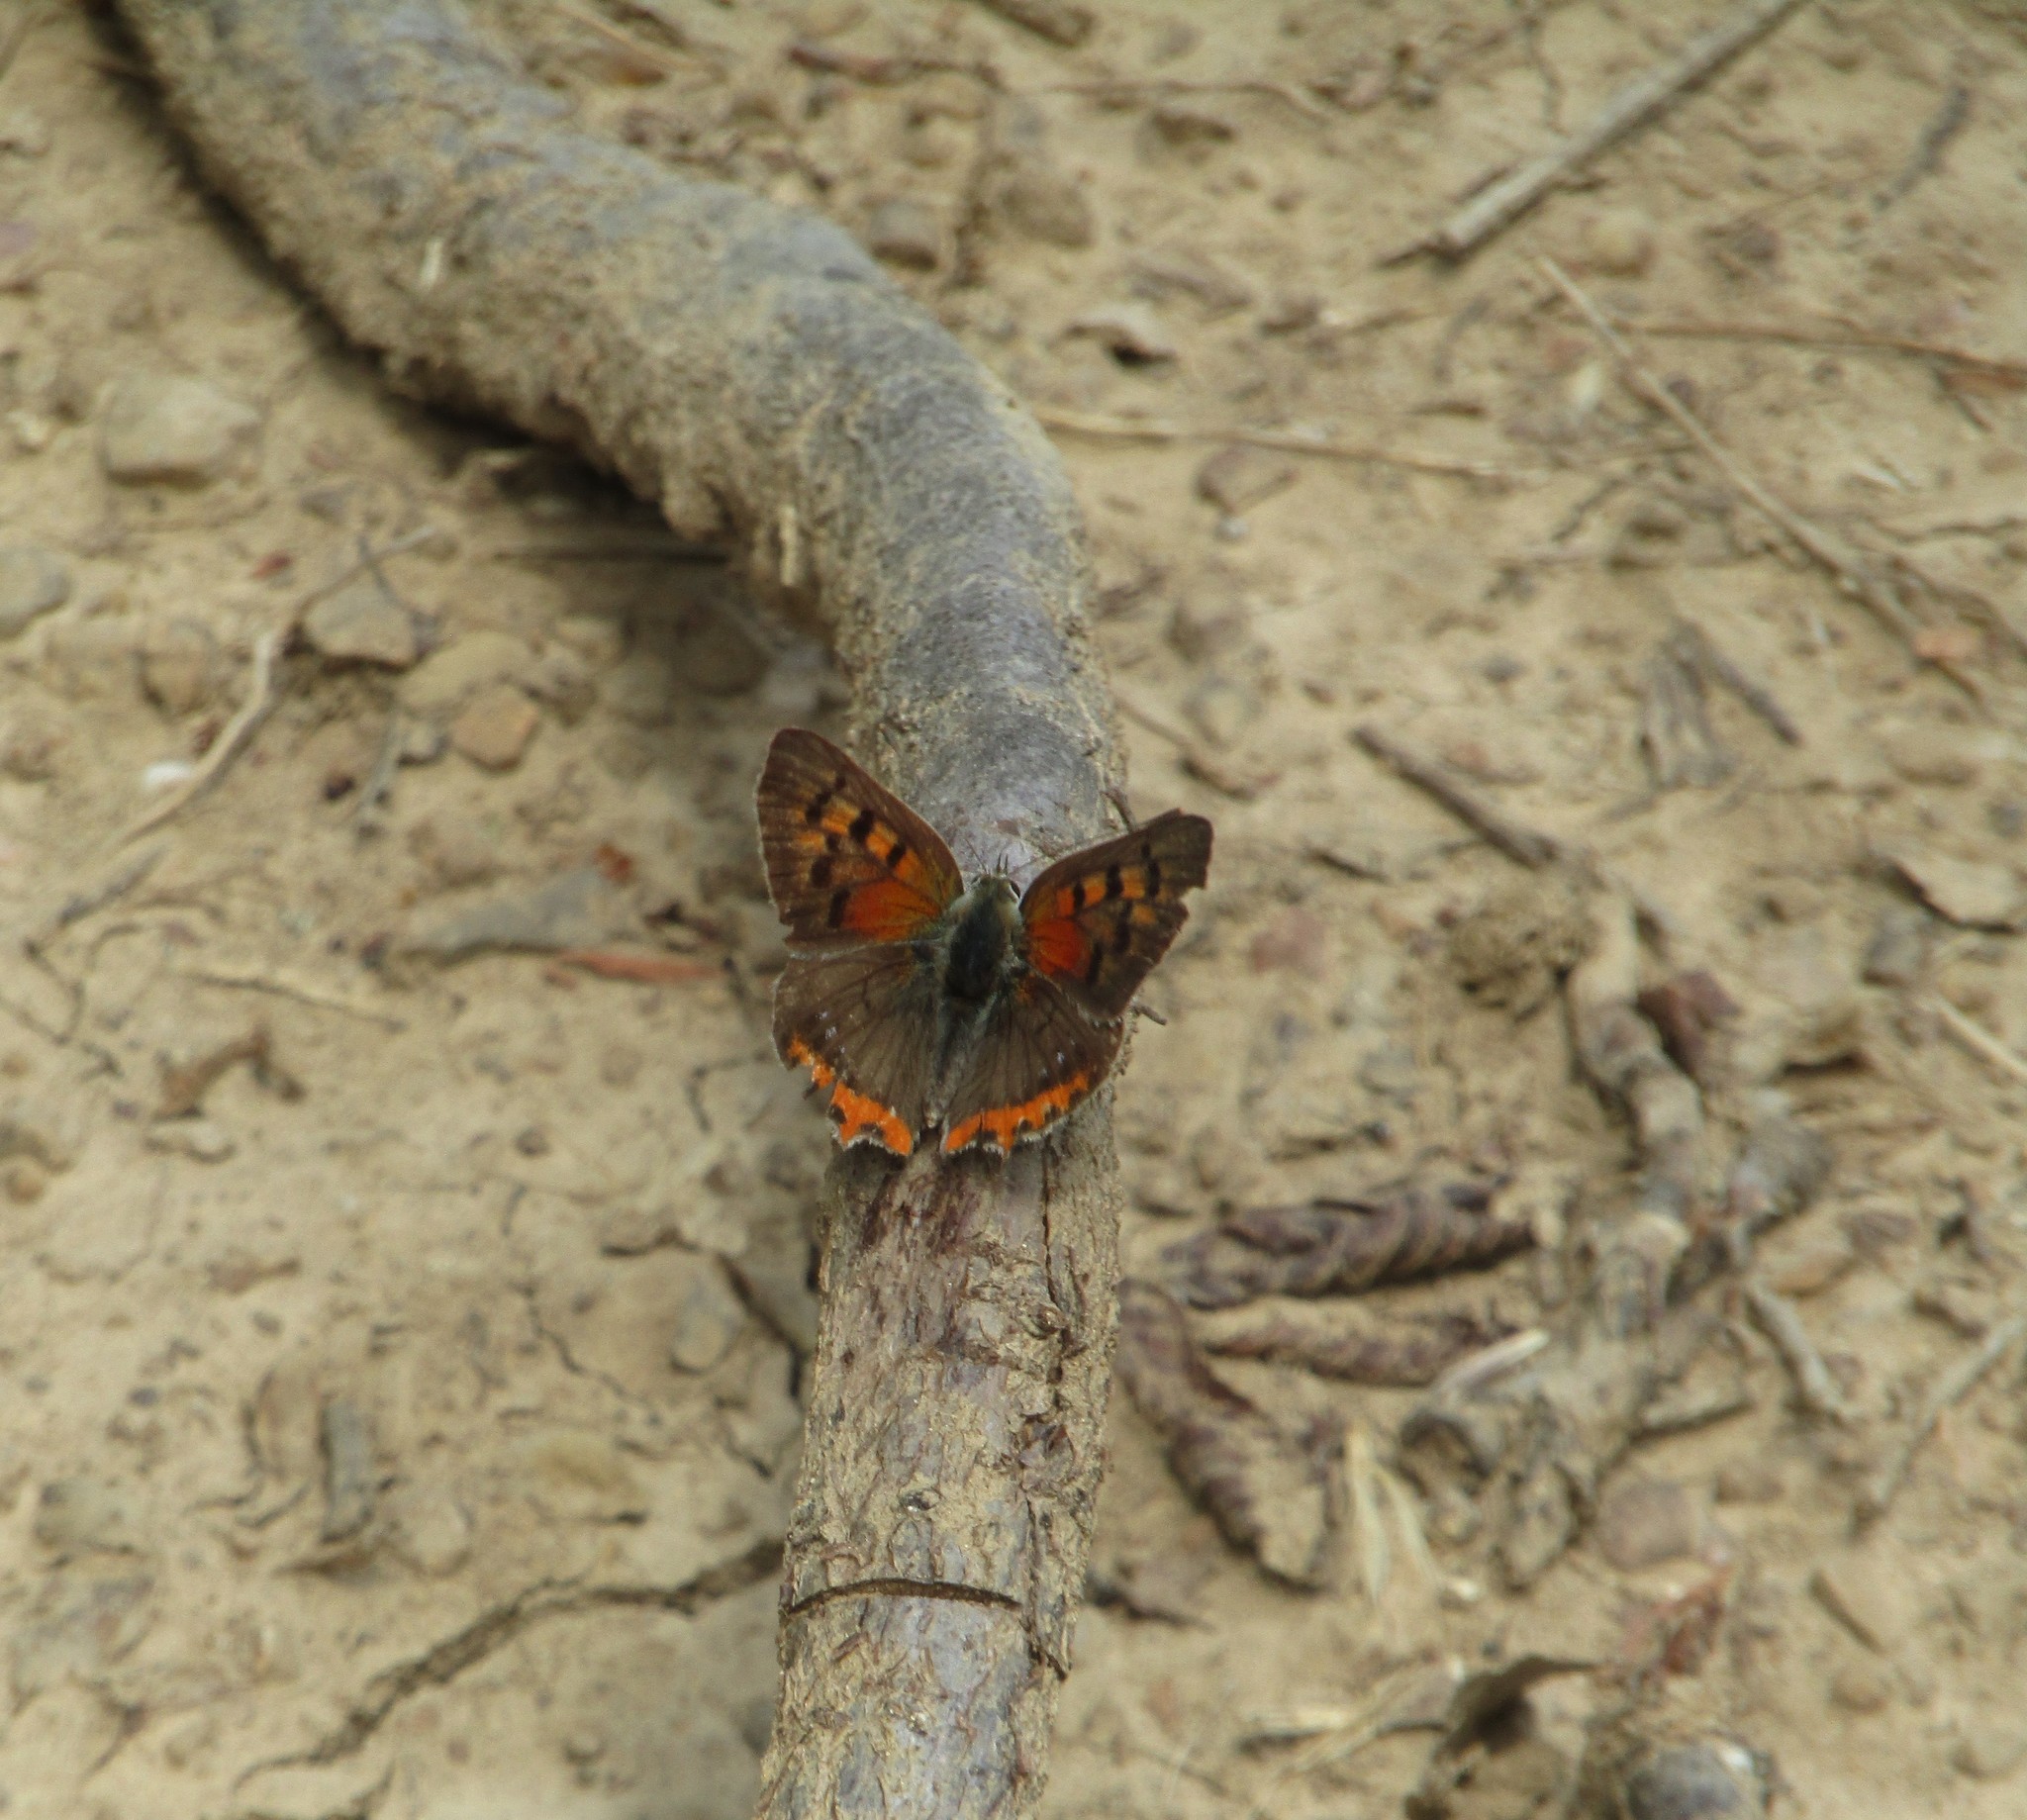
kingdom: Animalia
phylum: Arthropoda
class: Insecta
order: Lepidoptera
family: Lycaenidae
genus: Lycaena
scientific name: Lycaena phlaeas
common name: Small copper
